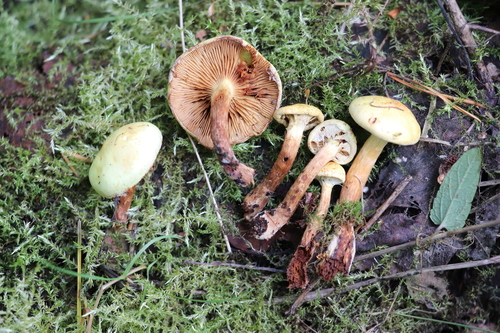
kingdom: Fungi
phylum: Basidiomycota
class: Agaricomycetes
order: Agaricales
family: Hymenogastraceae
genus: Flammula
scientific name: Flammula alnicola
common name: Alder scalycap
